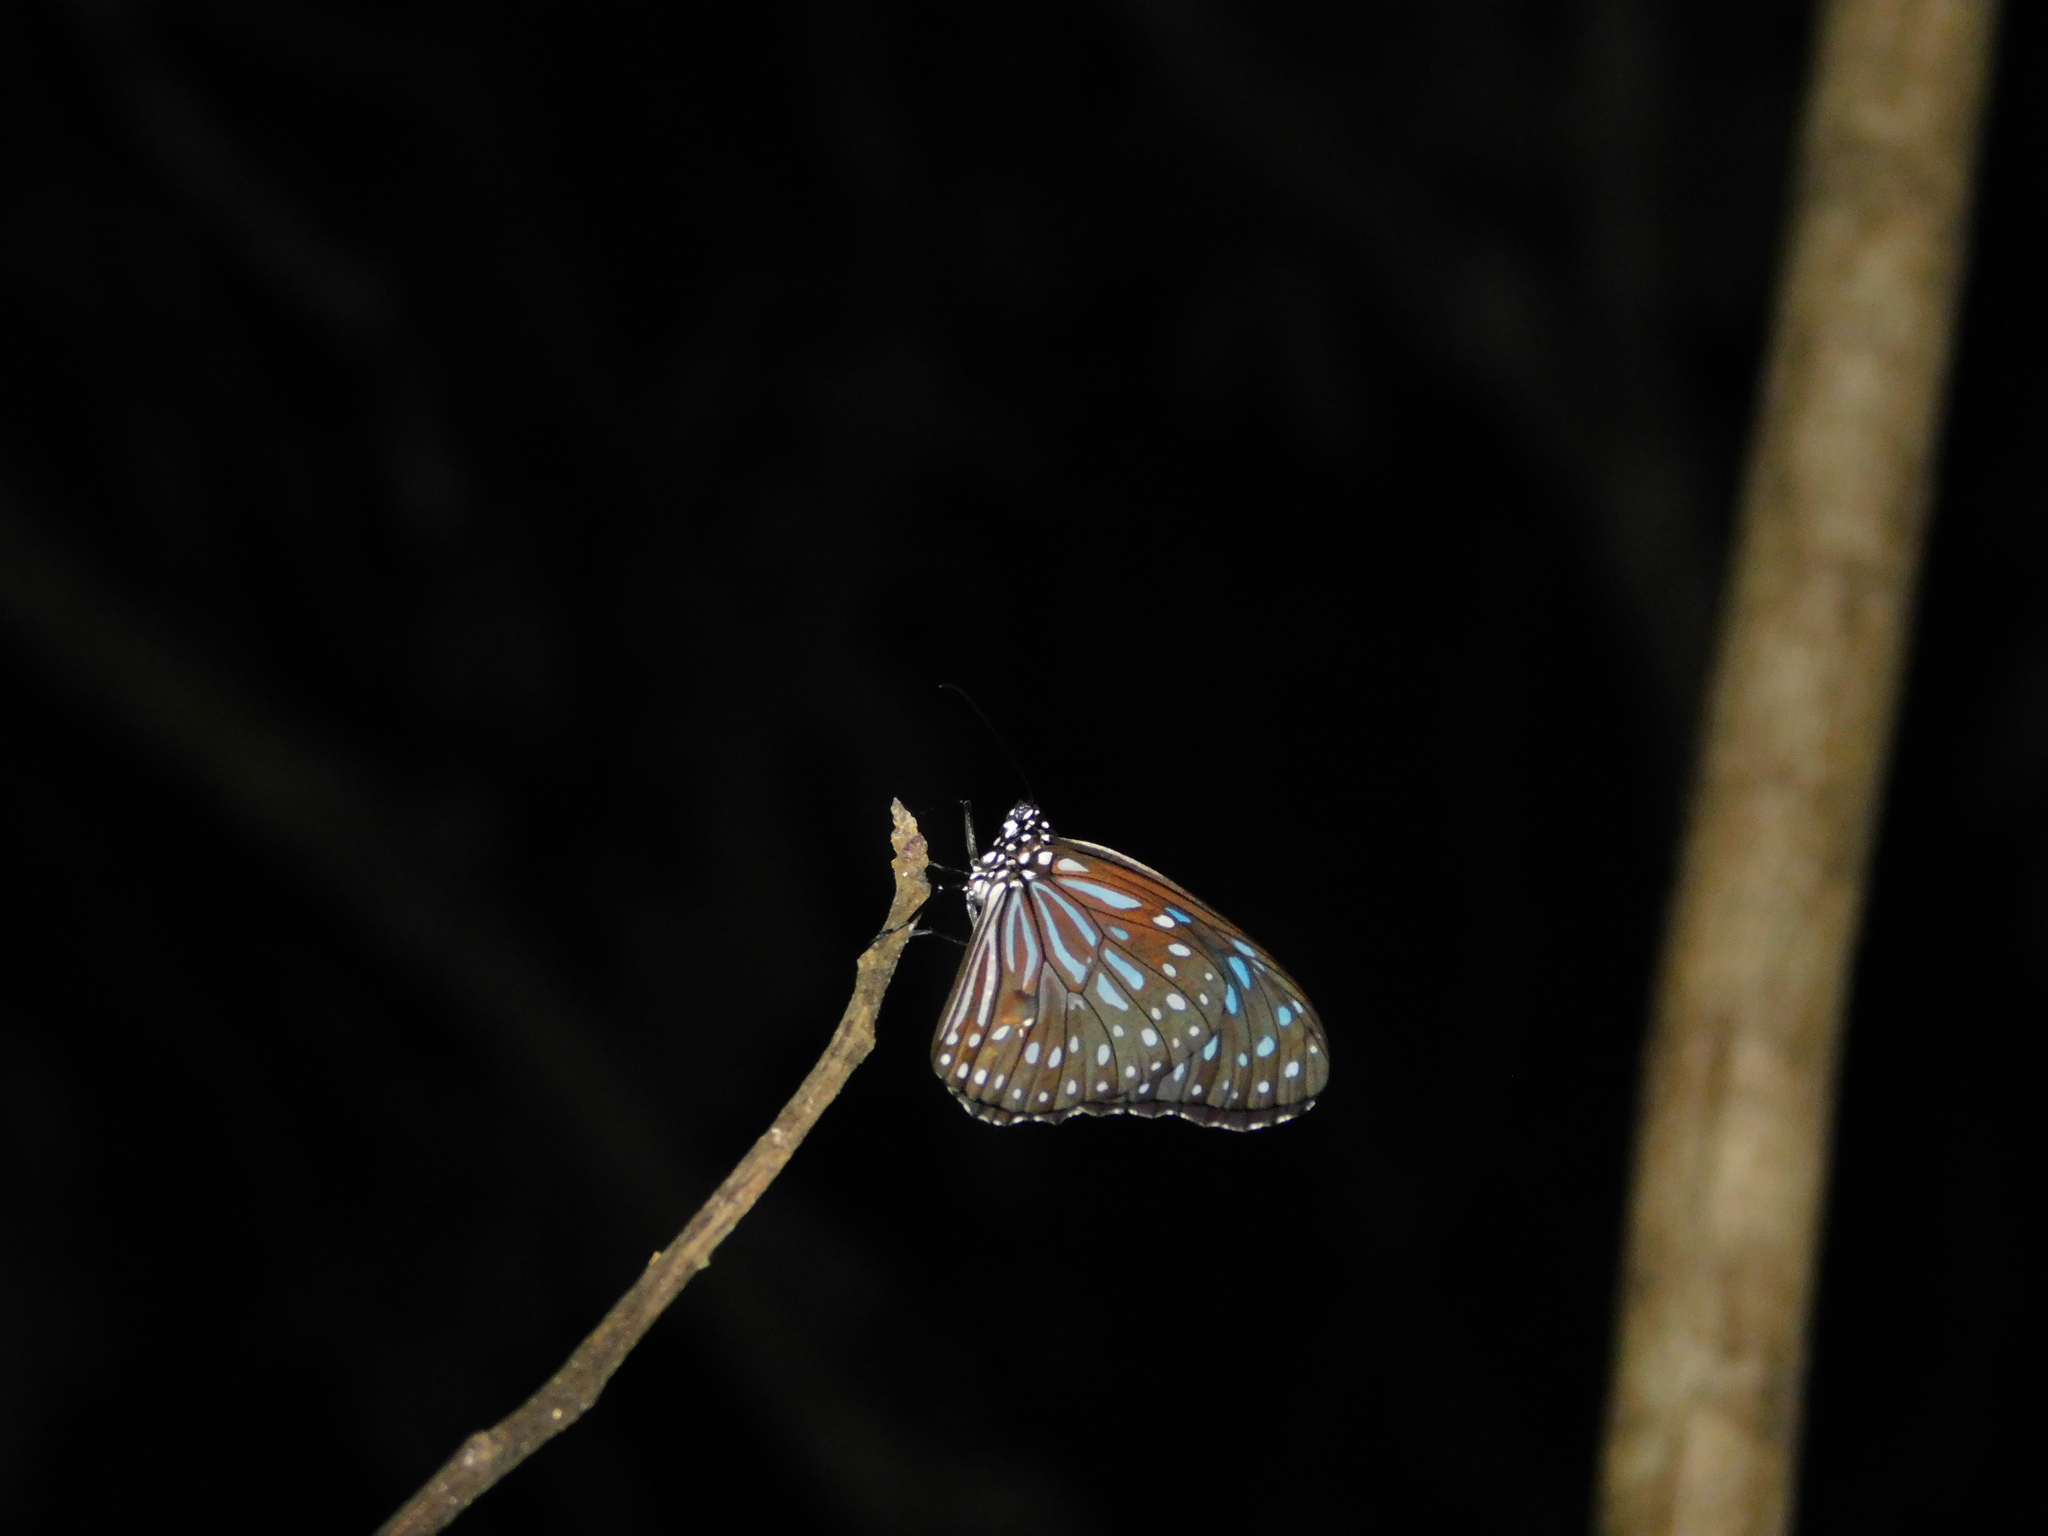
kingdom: Animalia
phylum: Arthropoda
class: Insecta
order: Lepidoptera
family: Nymphalidae
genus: Tirumala
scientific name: Tirumala septentrionis
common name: Dark blue tiger butterfly
